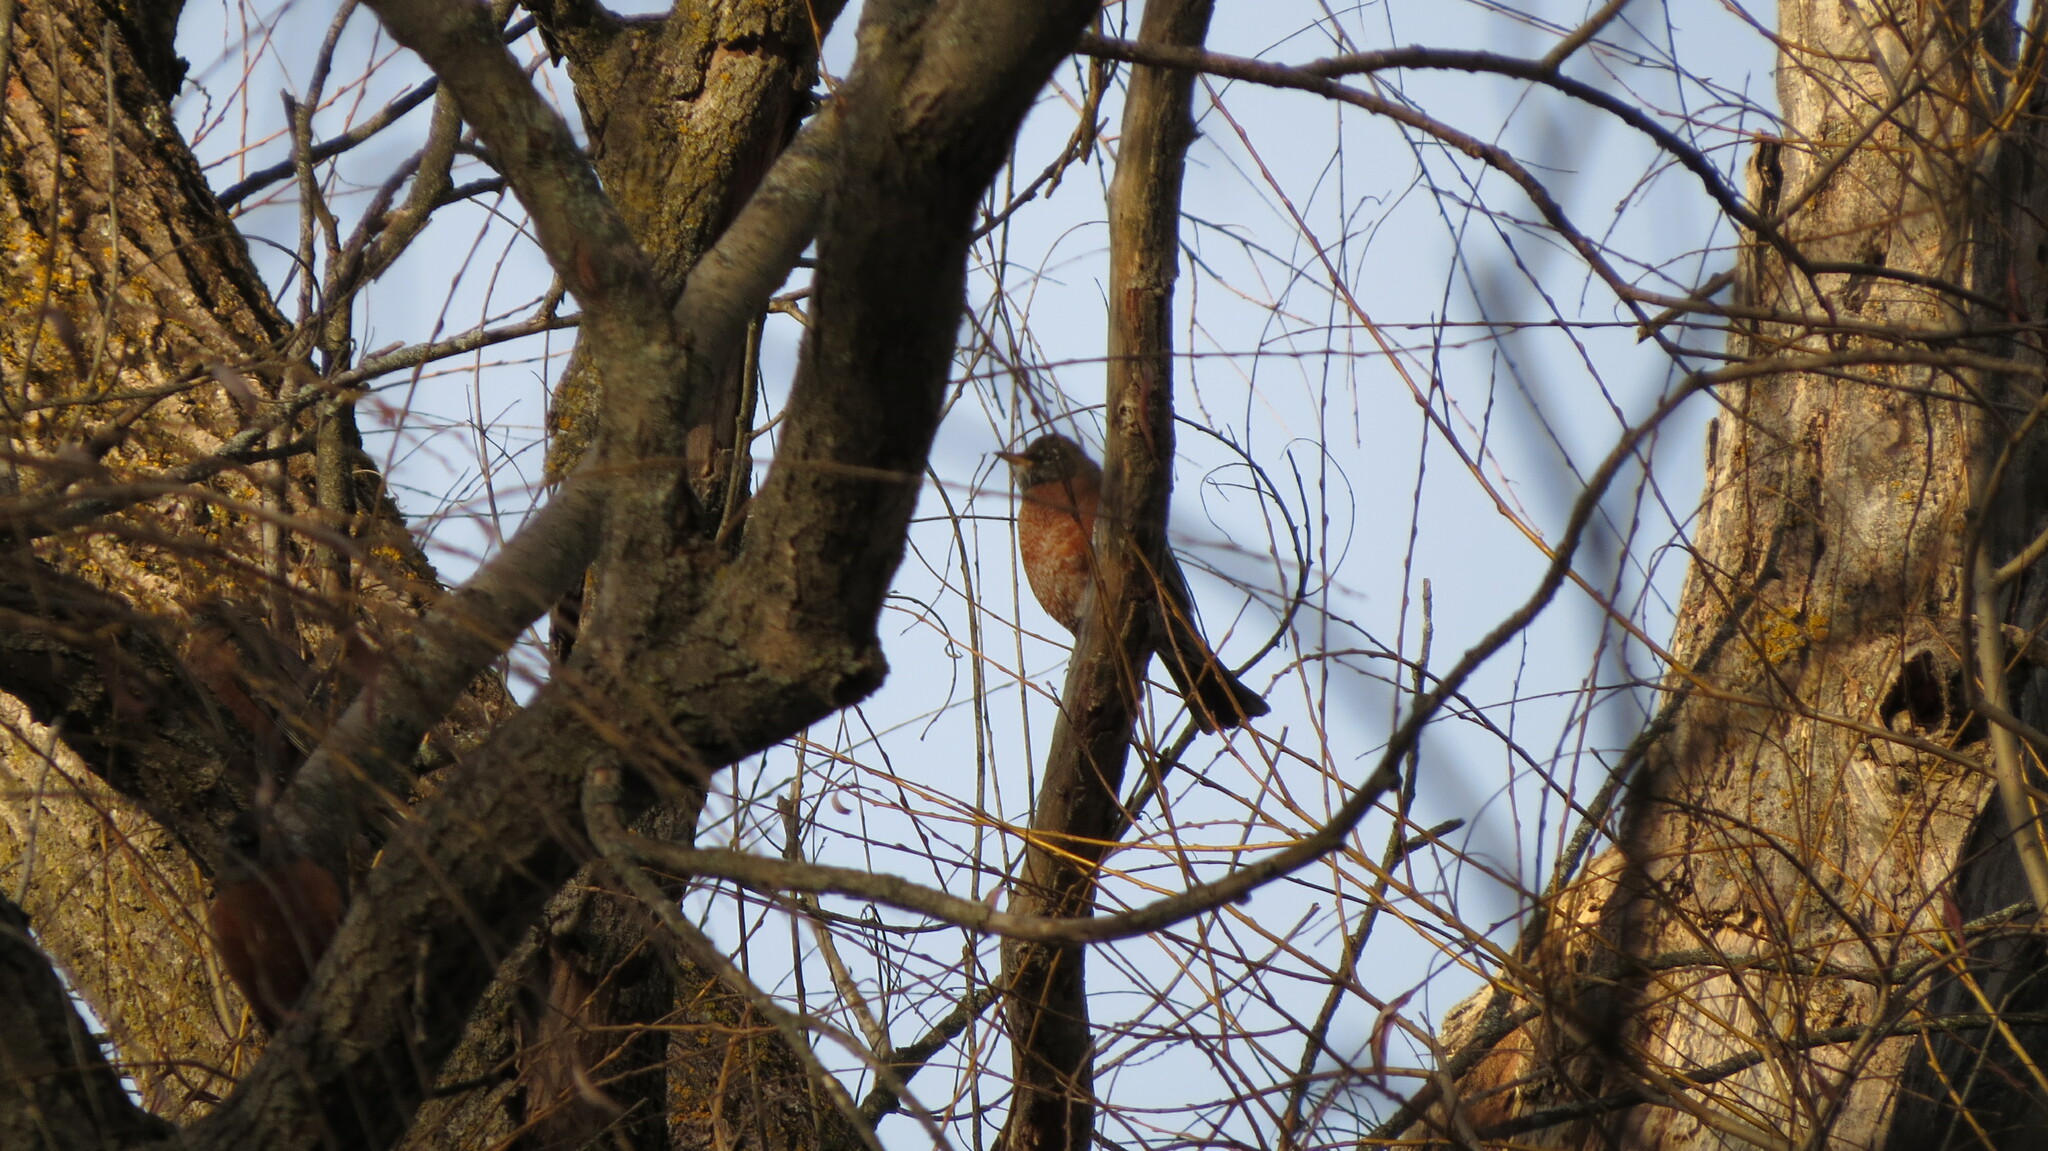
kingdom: Animalia
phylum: Chordata
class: Aves
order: Passeriformes
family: Turdidae
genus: Turdus
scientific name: Turdus migratorius
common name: American robin
